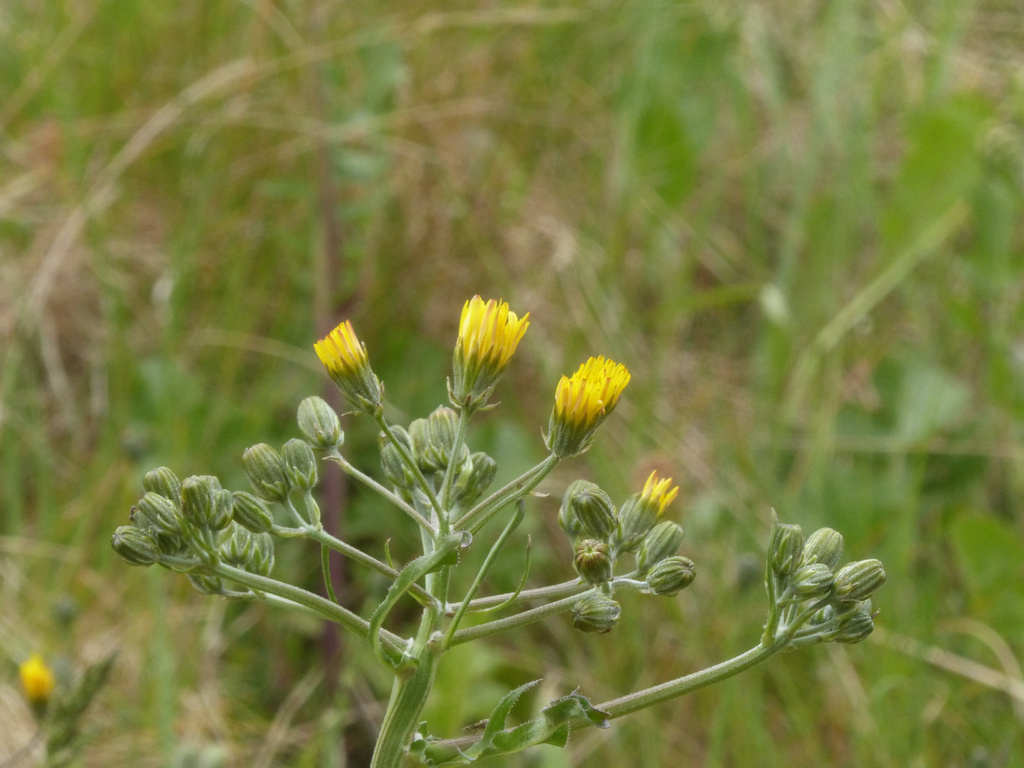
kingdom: Plantae
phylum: Tracheophyta
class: Magnoliopsida
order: Asterales
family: Asteraceae
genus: Crepis
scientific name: Crepis vesicaria
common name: Beaked hawksbeard
